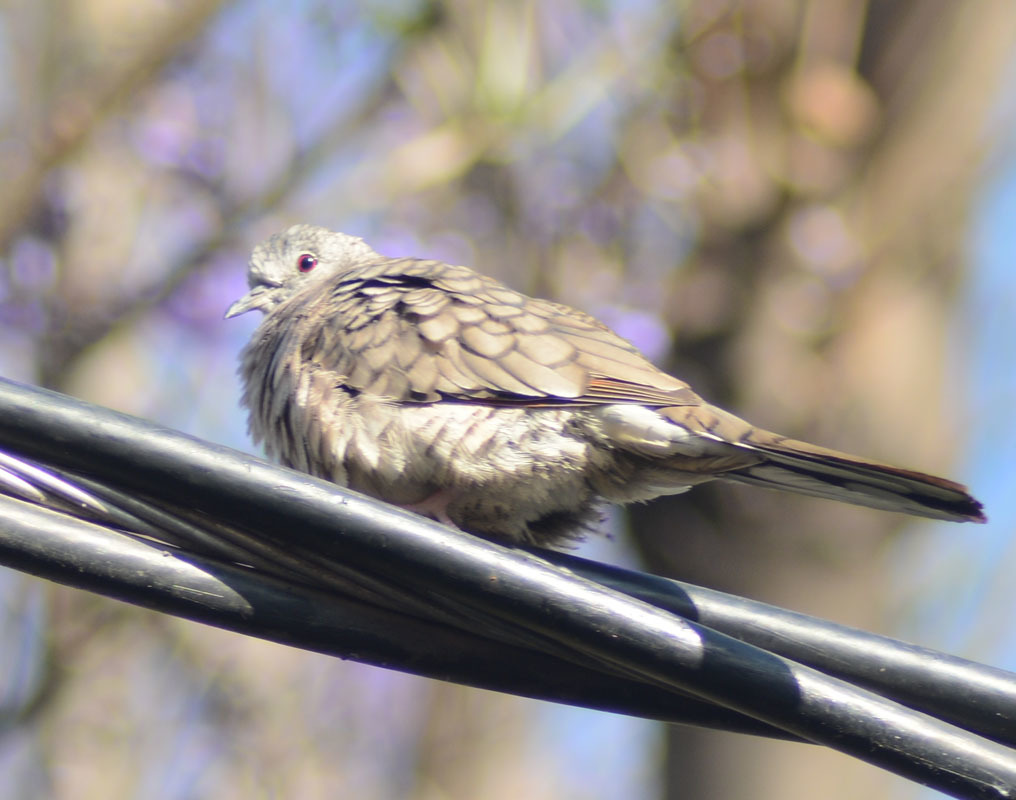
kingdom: Animalia
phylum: Chordata
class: Aves
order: Columbiformes
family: Columbidae
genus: Columbina
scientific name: Columbina inca
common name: Inca dove
